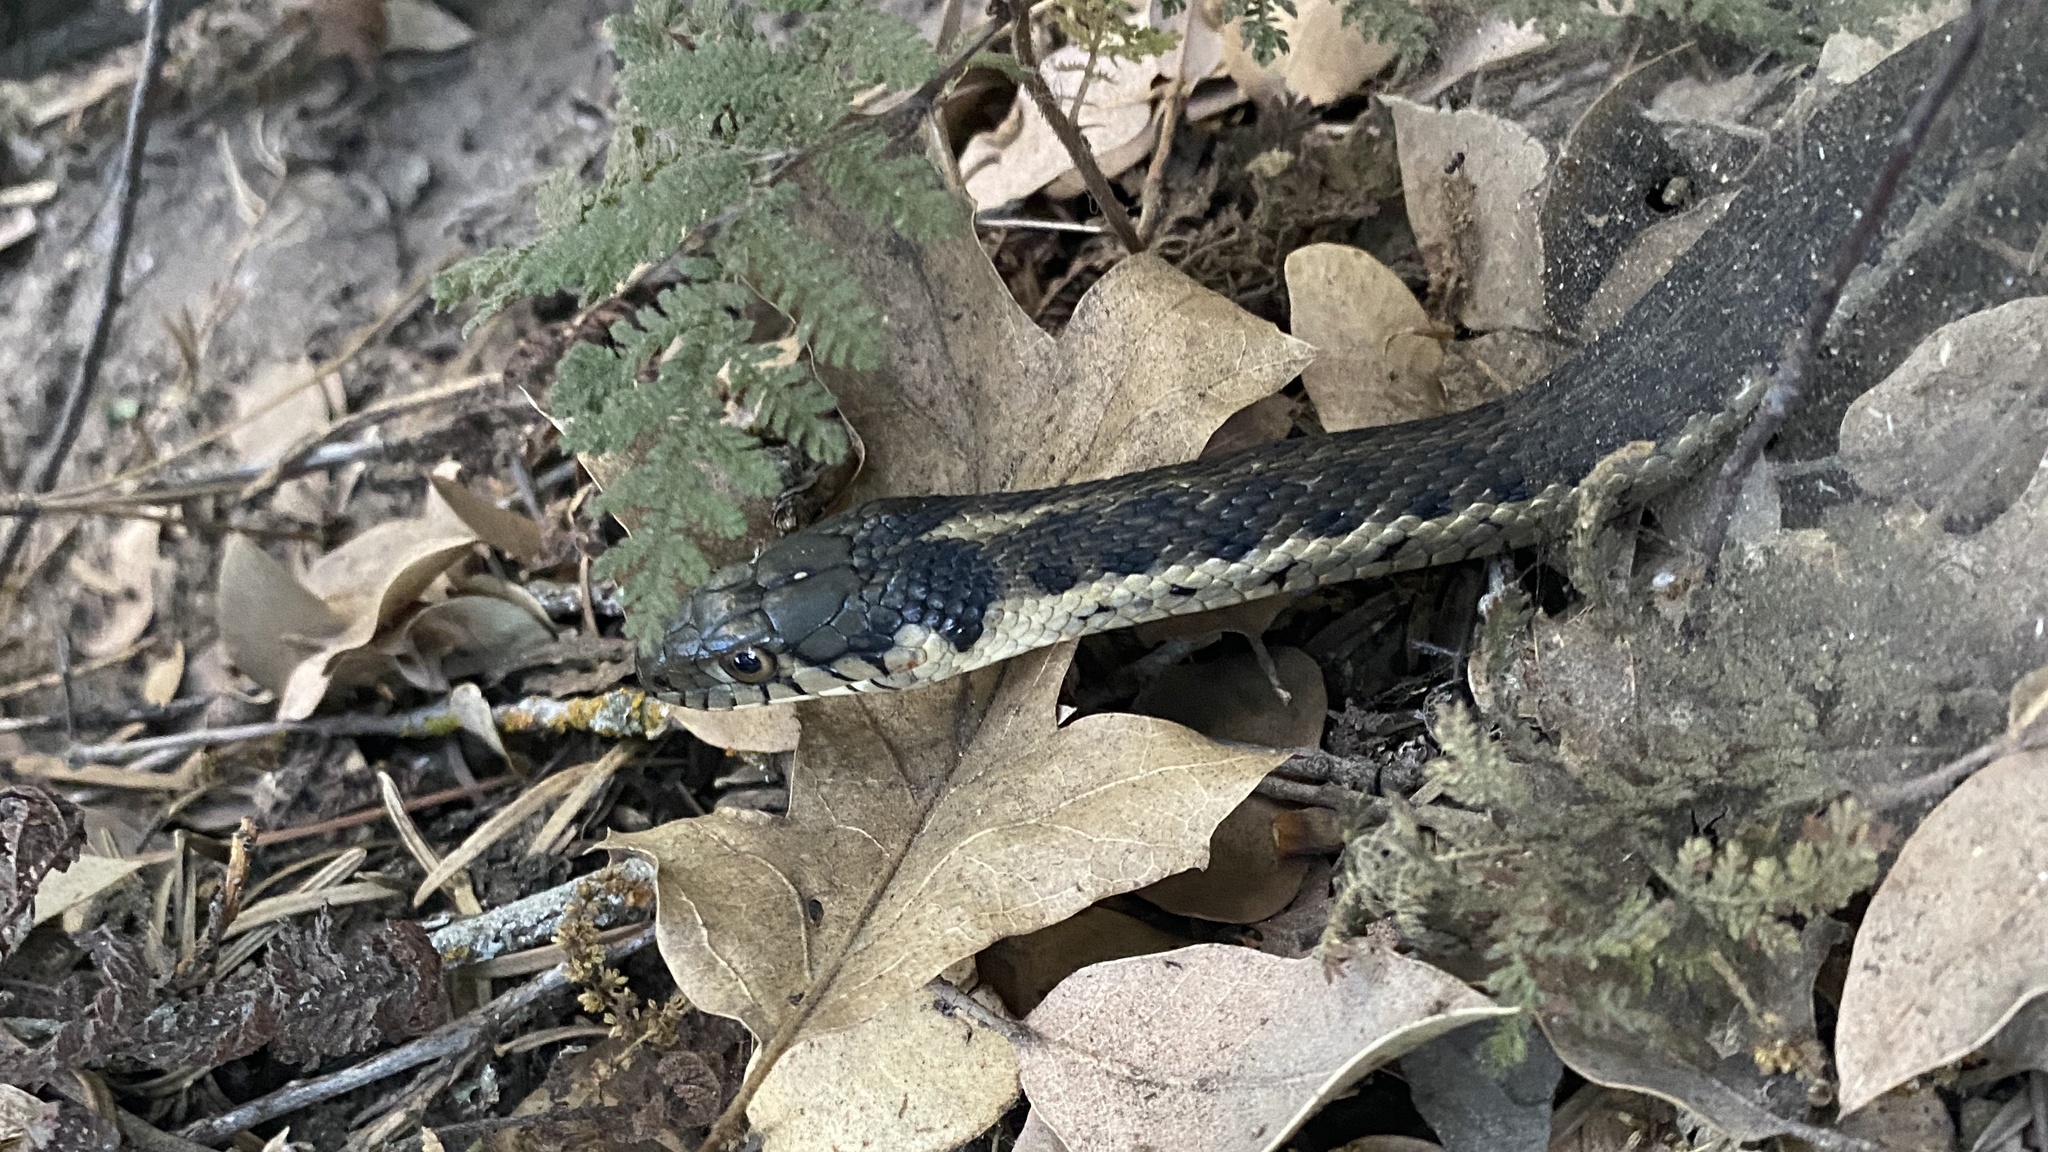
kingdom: Animalia
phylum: Chordata
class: Squamata
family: Colubridae
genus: Thamnophis
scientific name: Thamnophis couchii
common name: Western aquatic garter snake
